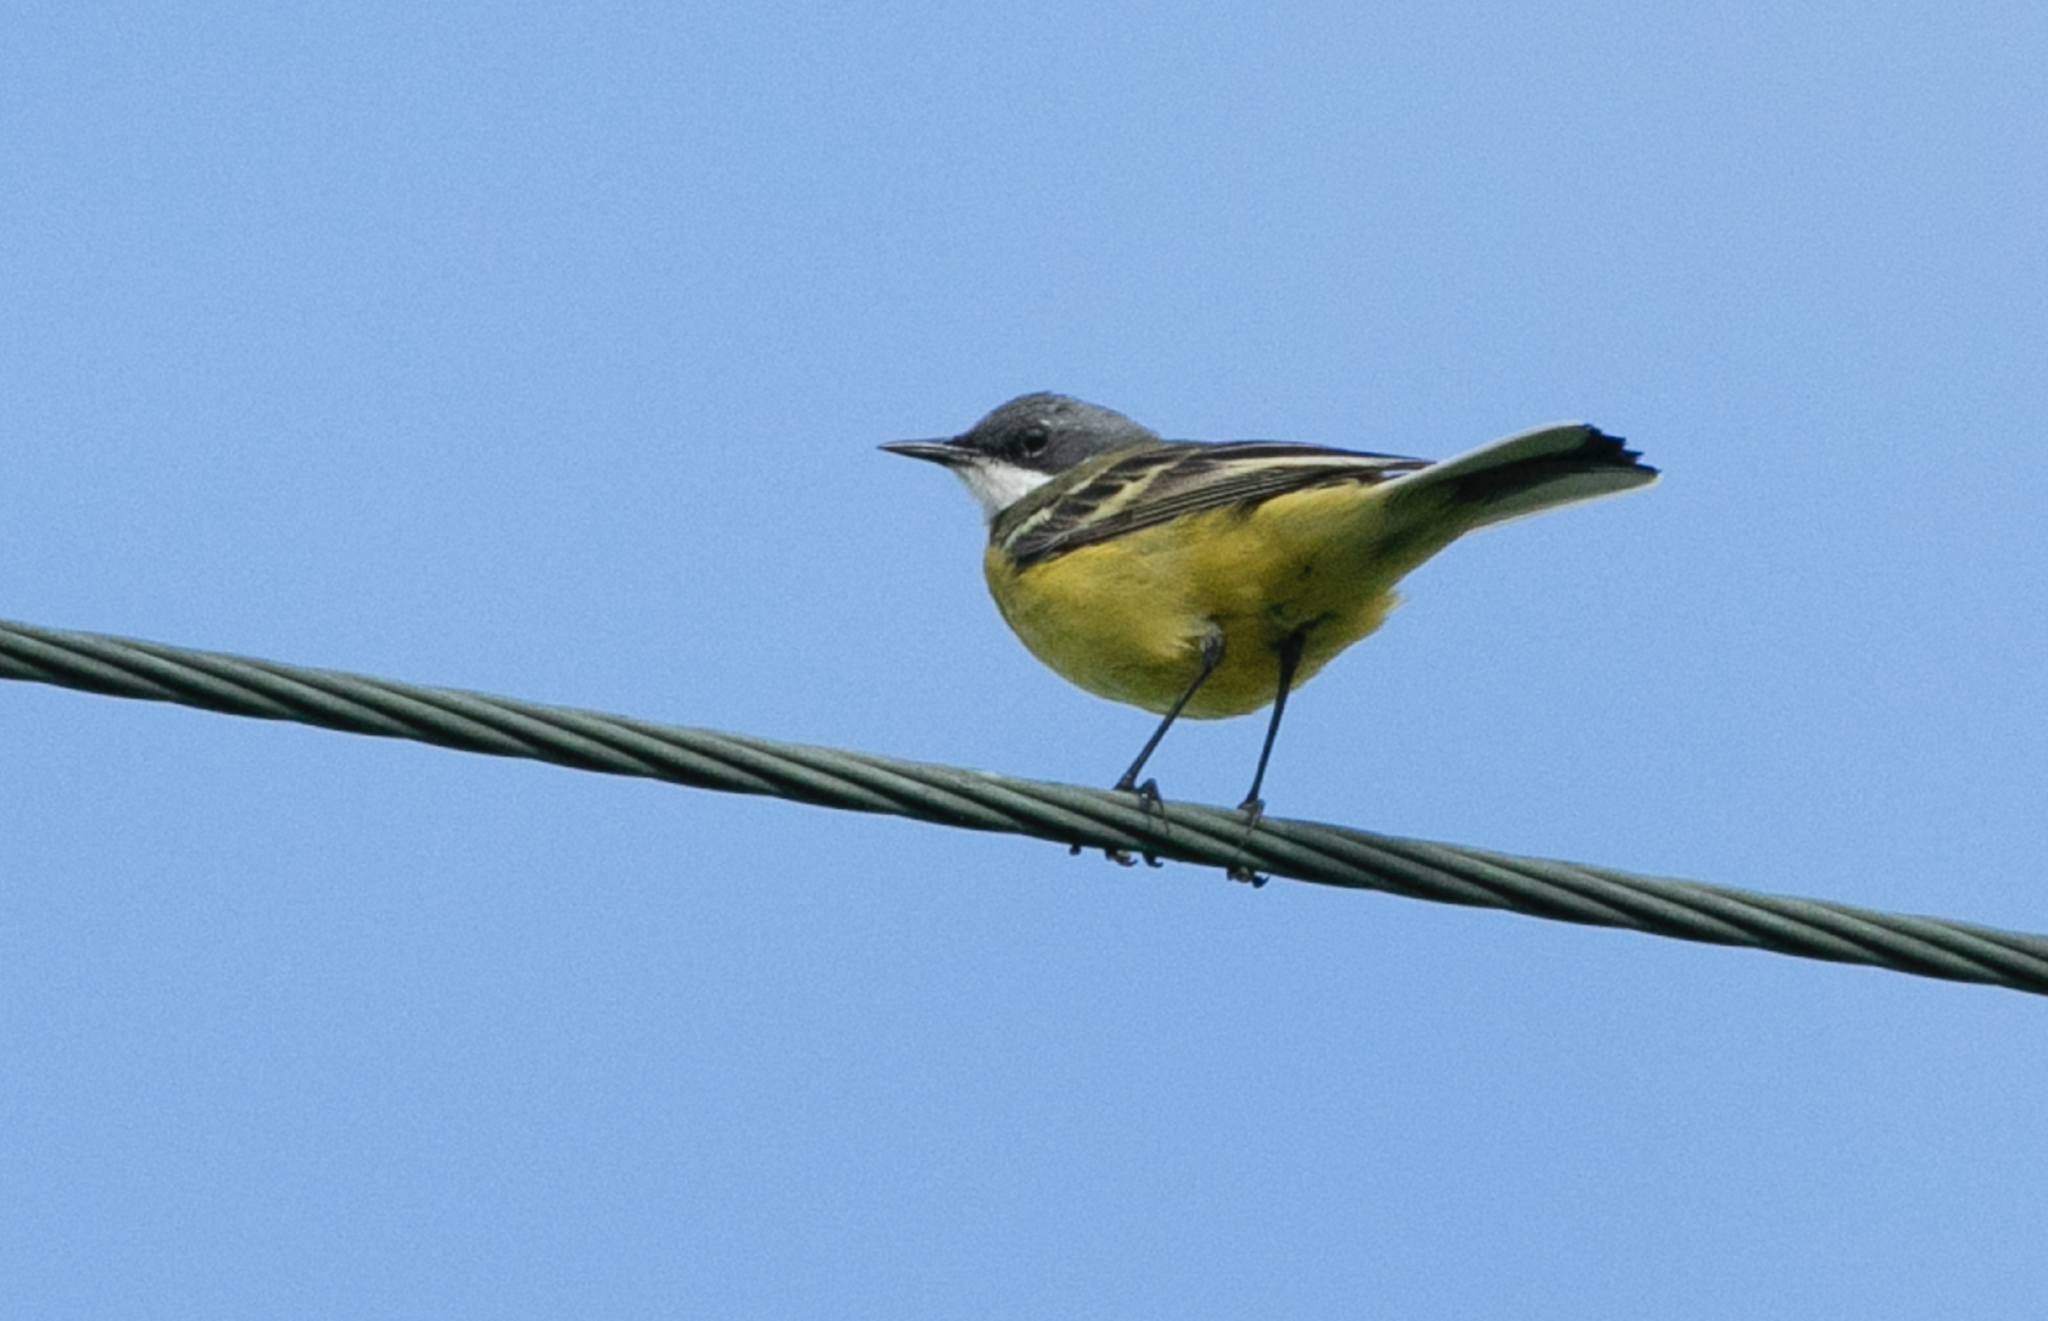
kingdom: Animalia
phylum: Chordata
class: Aves
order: Passeriformes
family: Motacillidae
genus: Motacilla
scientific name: Motacilla flava
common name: Western yellow wagtail
